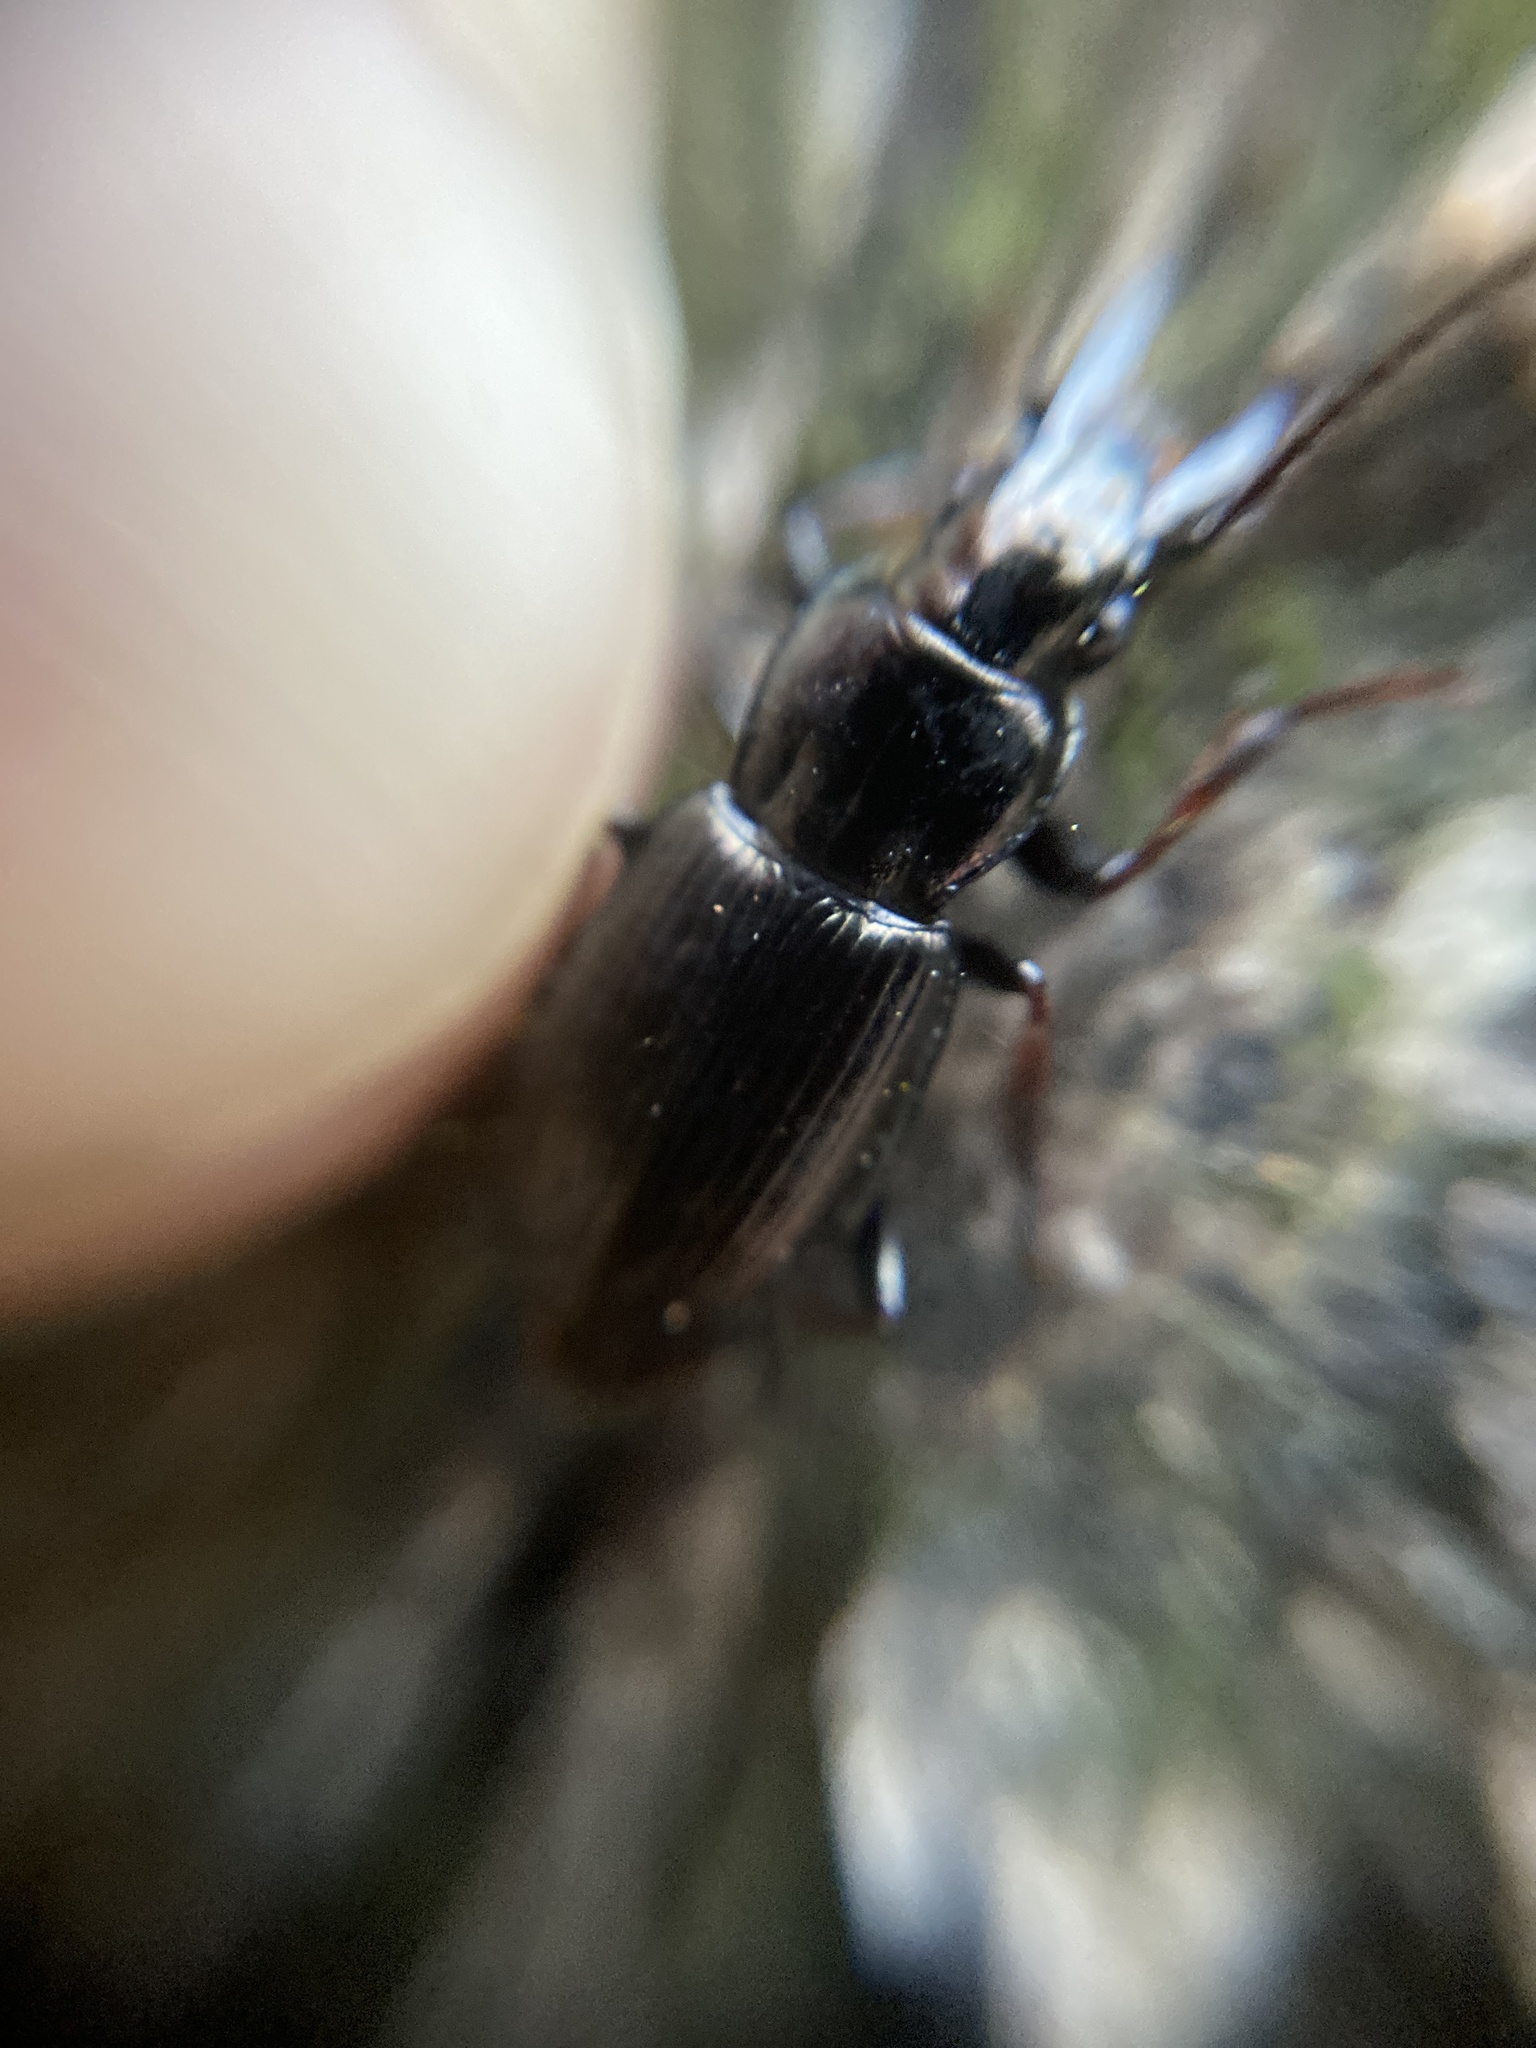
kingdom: Animalia
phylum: Arthropoda
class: Insecta
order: Coleoptera
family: Carabidae
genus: Pterostichus
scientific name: Pterostichus oblongopunctatus
